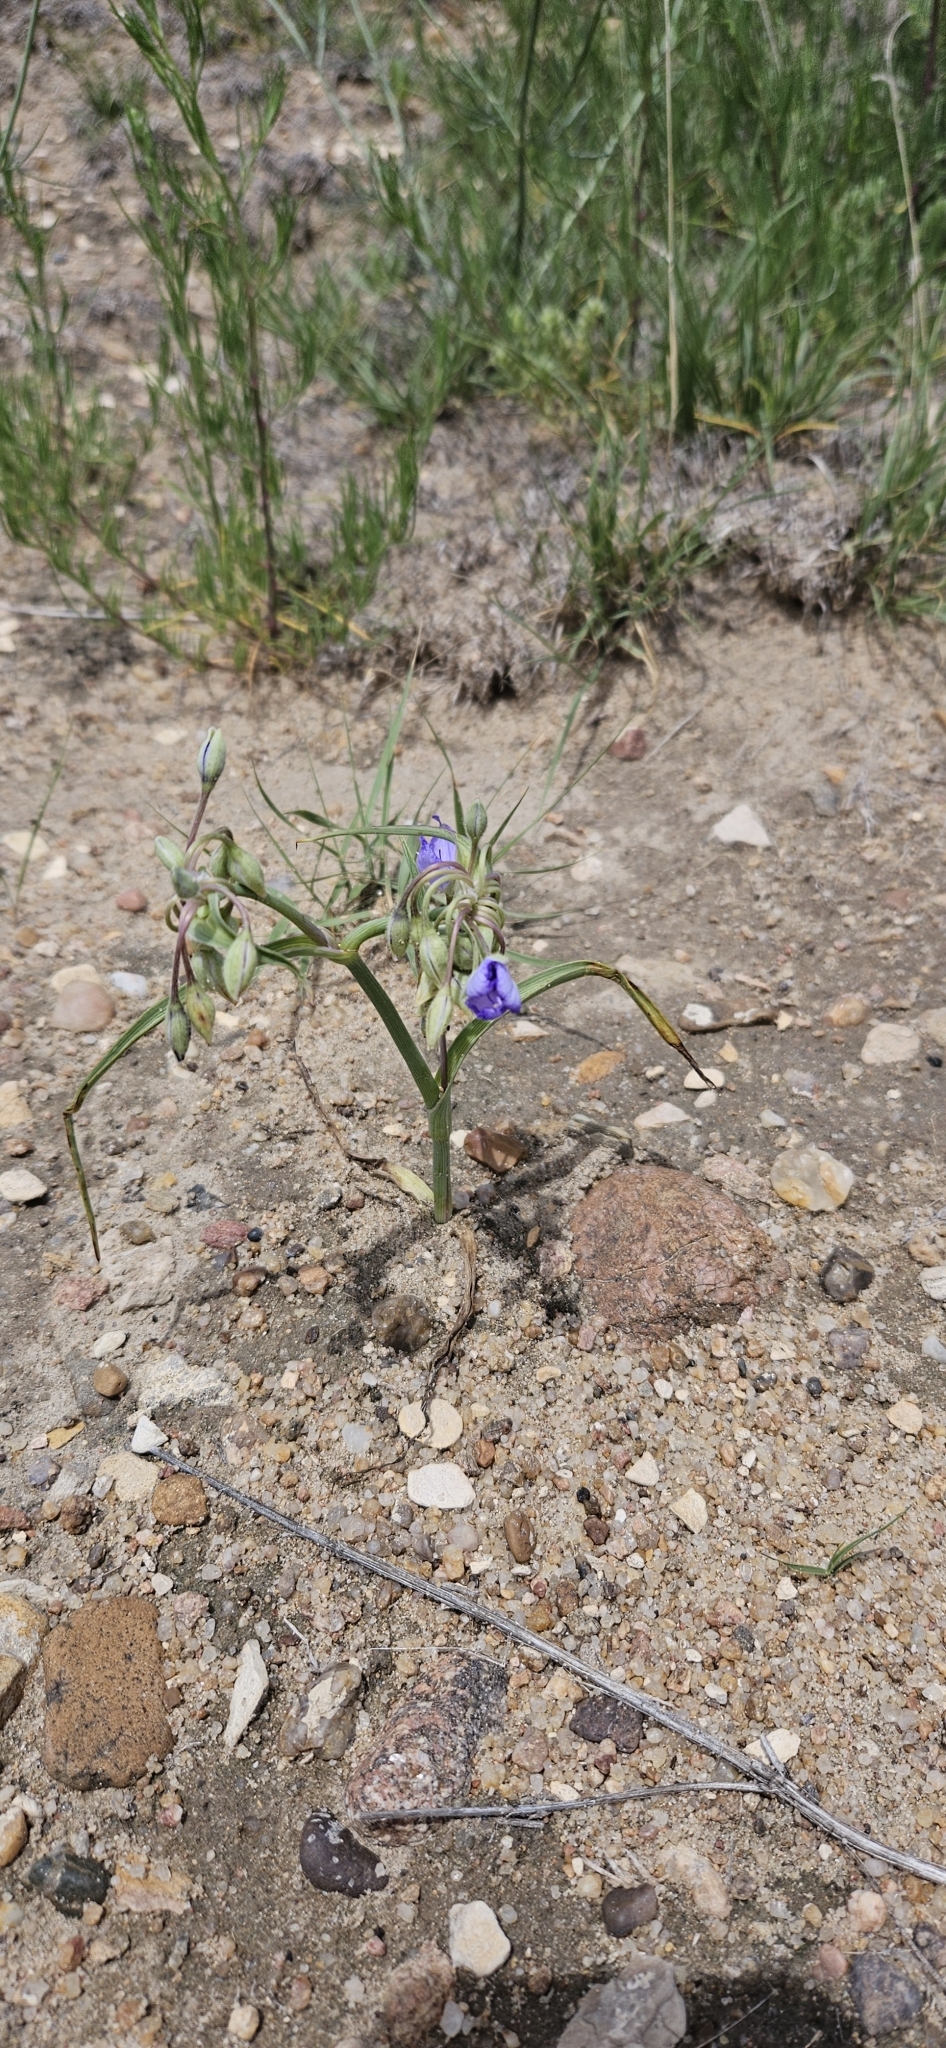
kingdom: Plantae
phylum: Tracheophyta
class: Liliopsida
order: Commelinales
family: Commelinaceae
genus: Tradescantia
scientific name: Tradescantia occidentalis
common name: Prairie spiderwort
